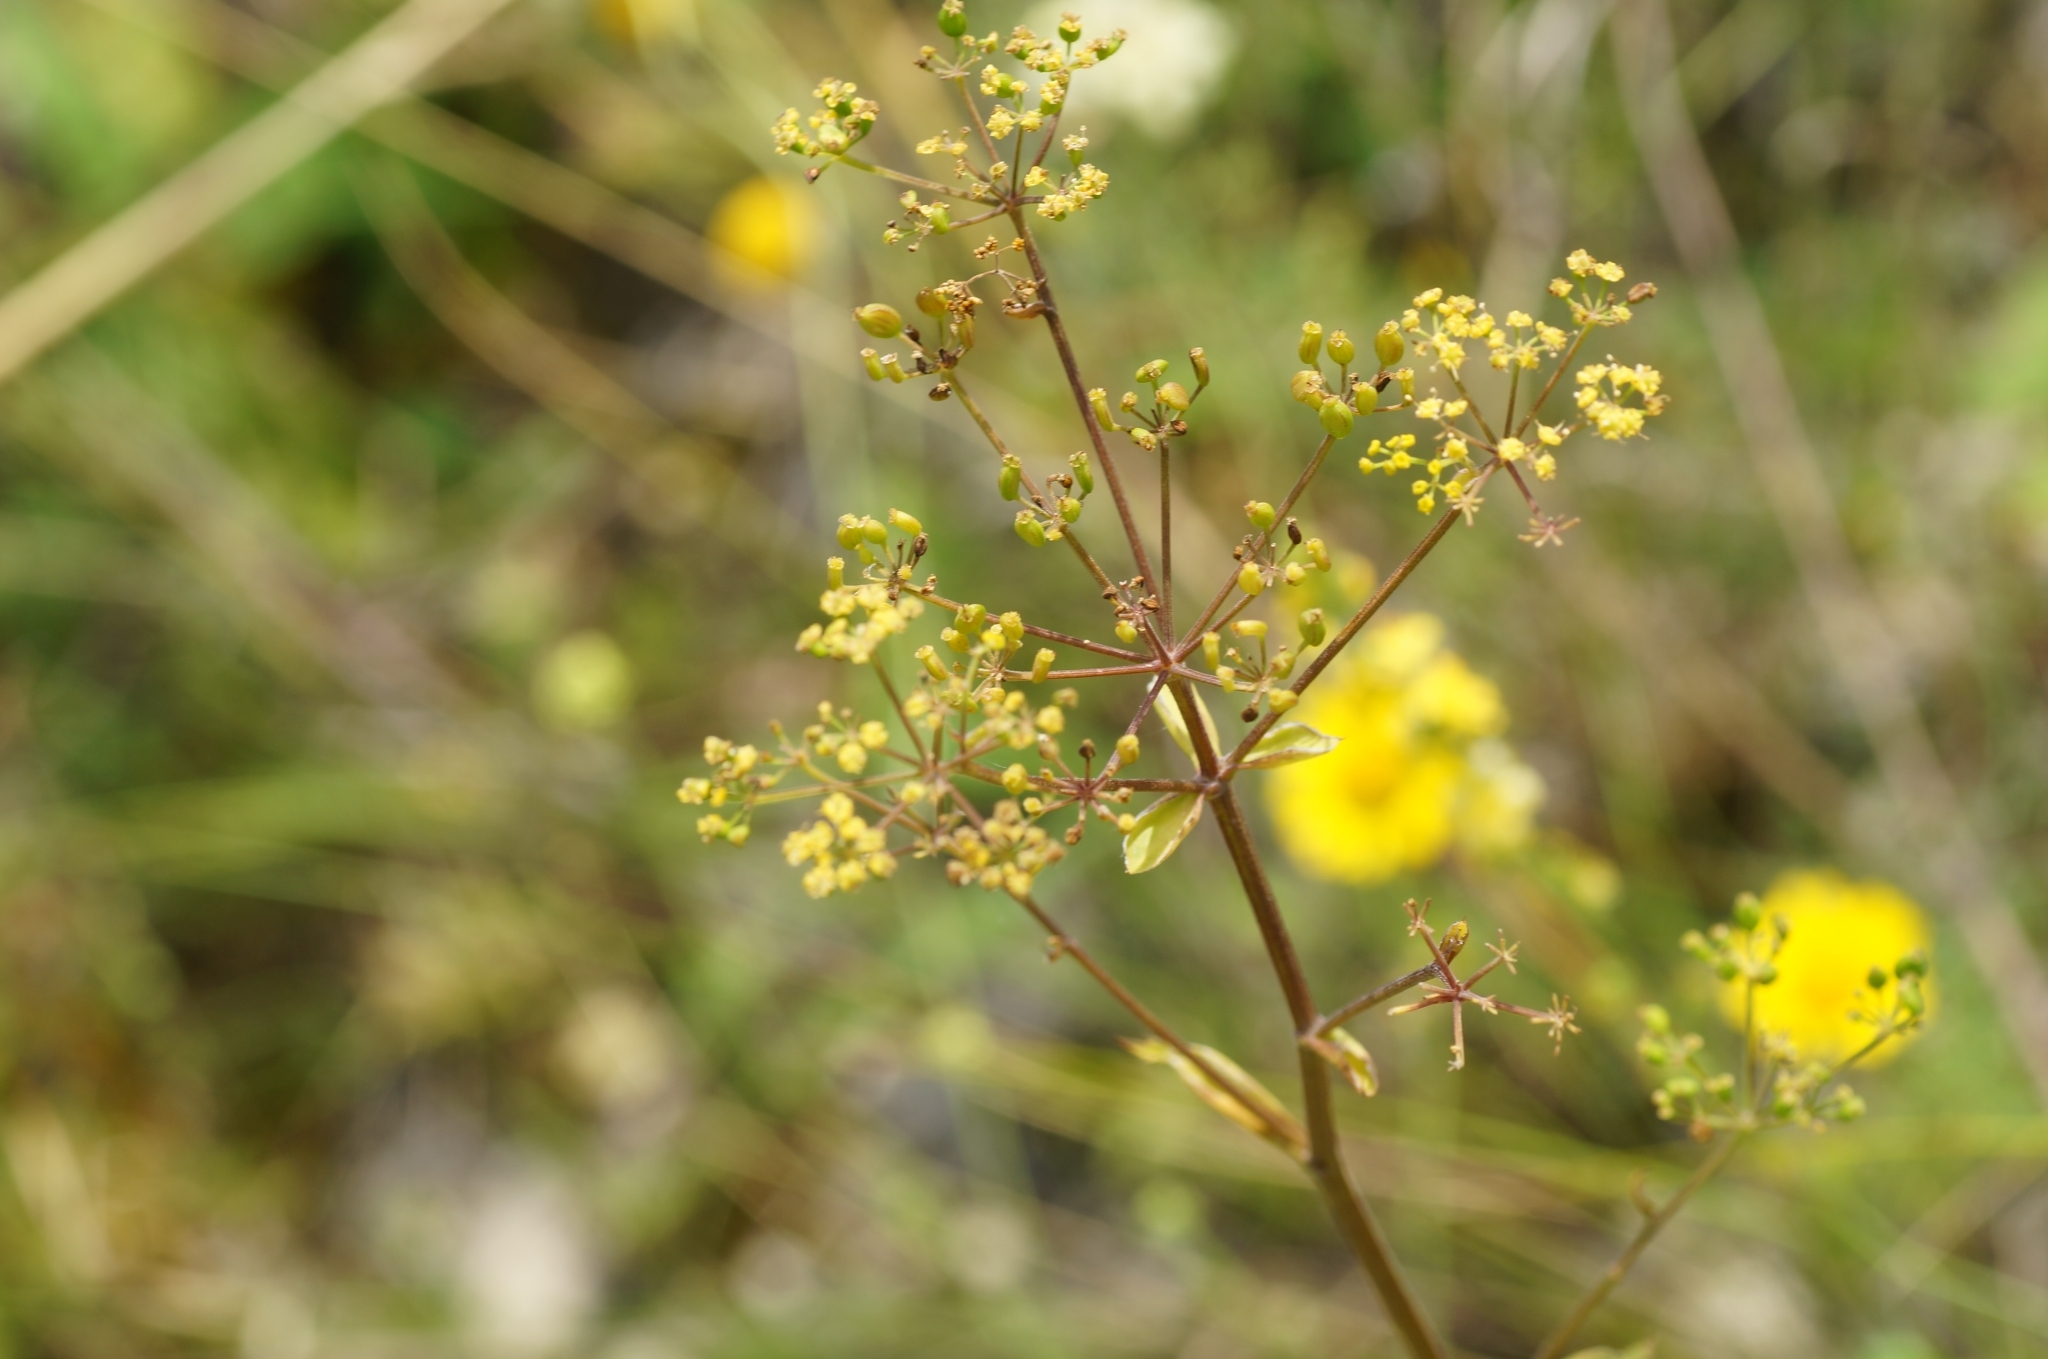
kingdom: Plantae
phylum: Tracheophyta
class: Magnoliopsida
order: Apiales
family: Apiaceae
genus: Pastinaca
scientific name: Pastinaca sativa
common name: Wild parsnip
